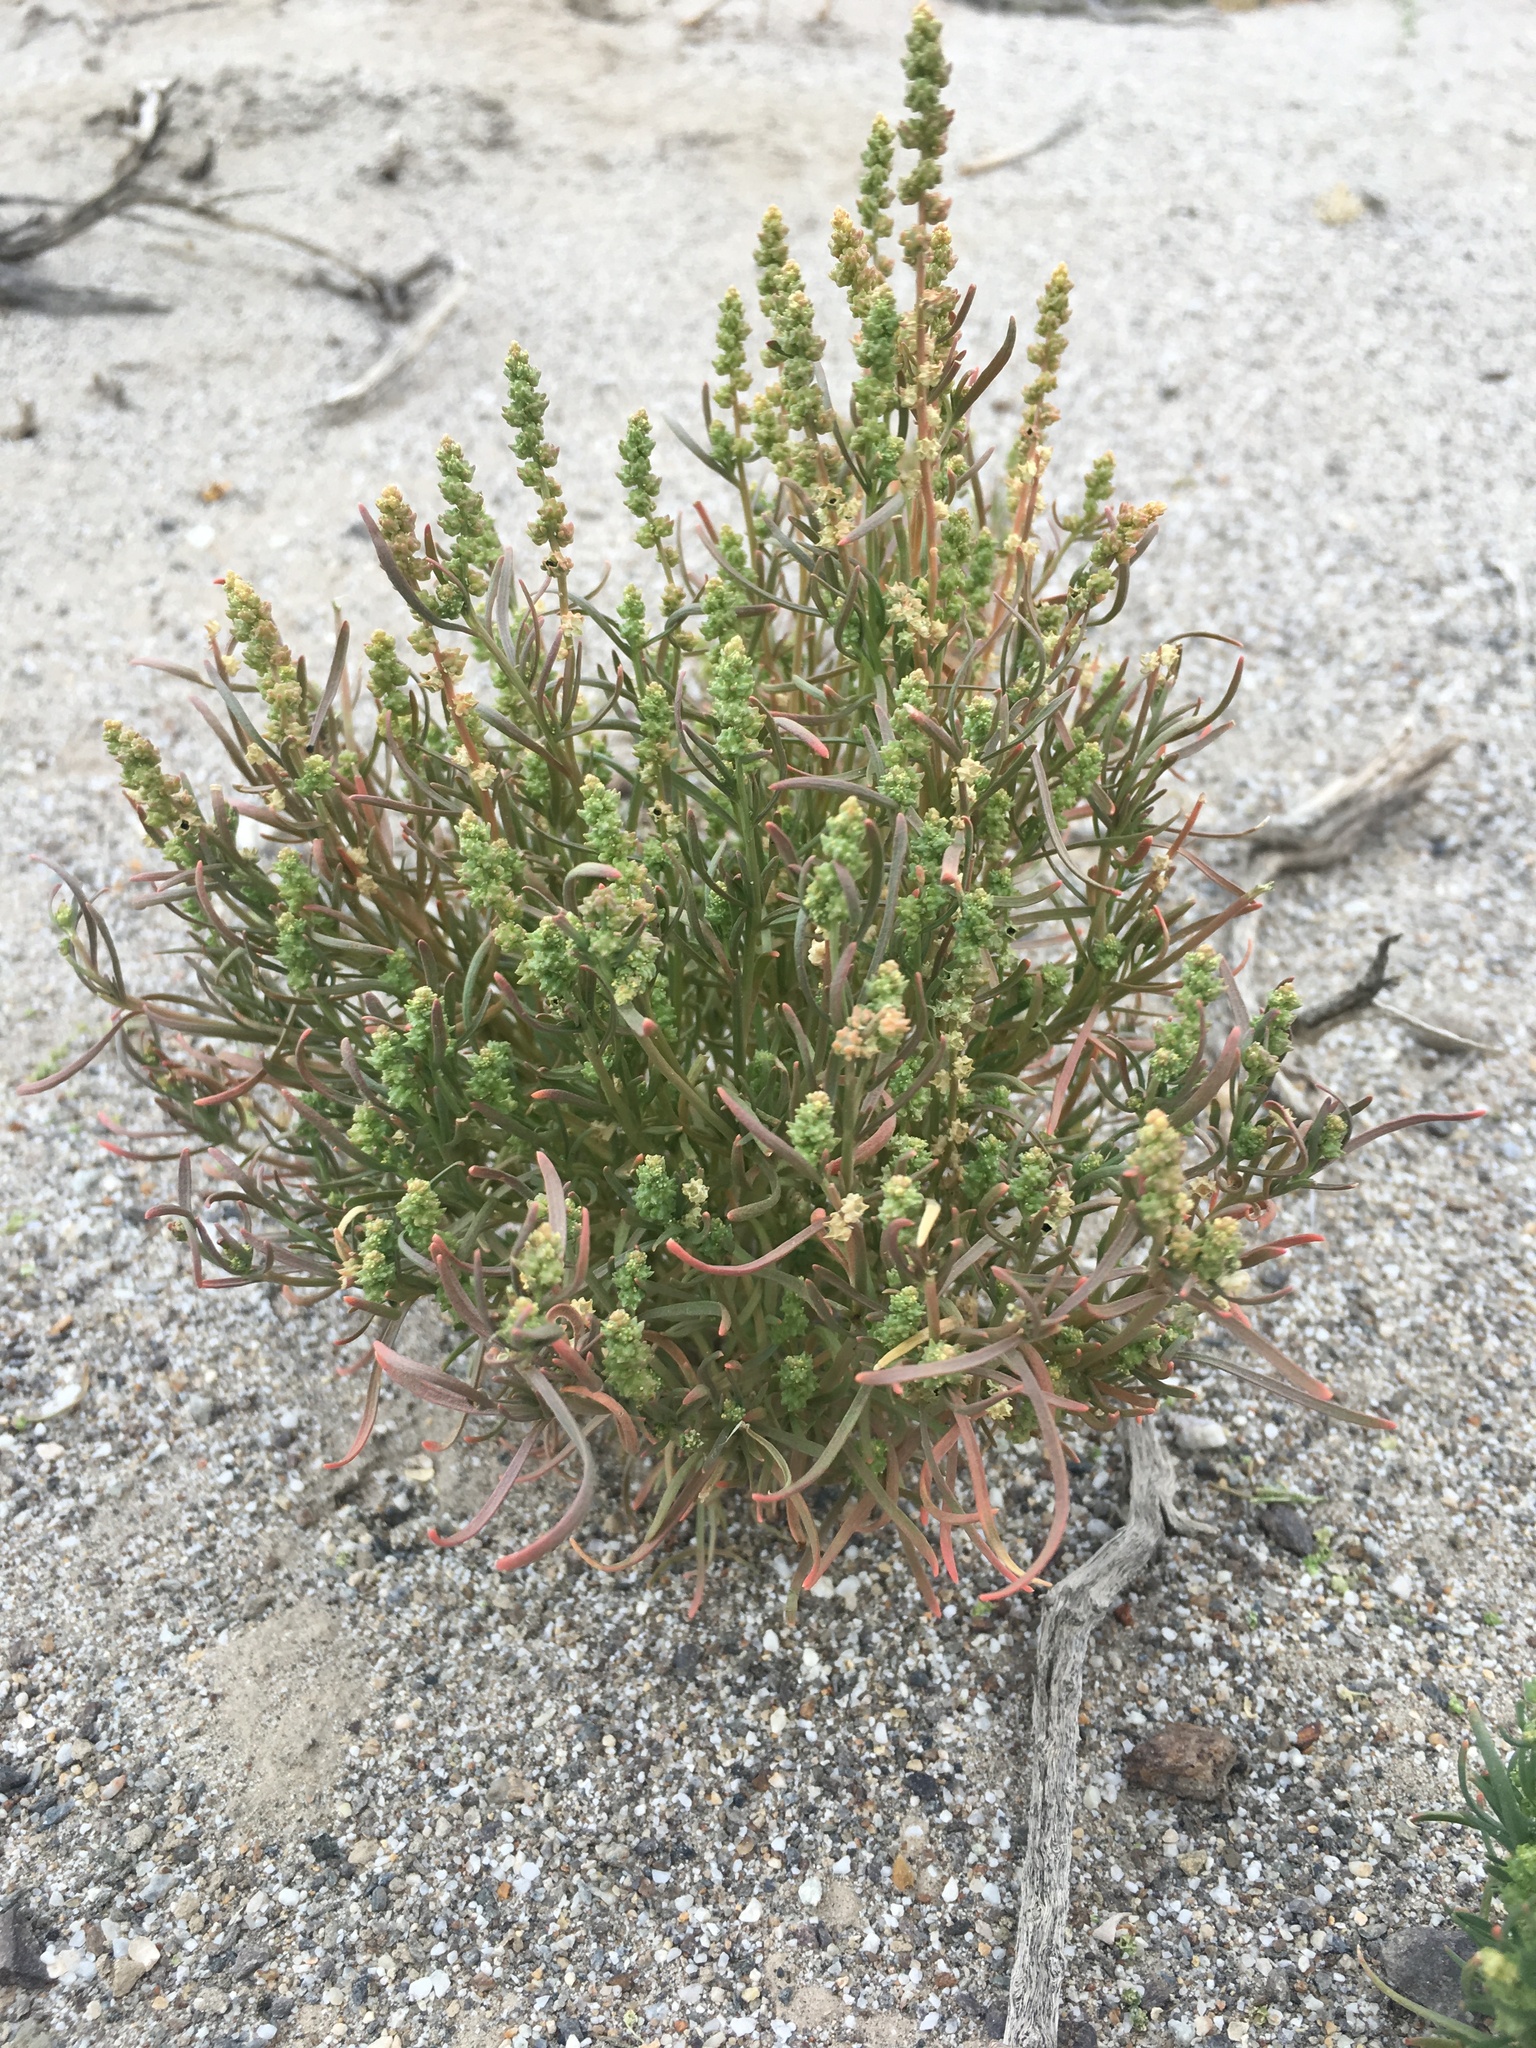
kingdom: Plantae
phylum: Tracheophyta
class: Magnoliopsida
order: Brassicales
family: Resedaceae
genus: Oligomeris
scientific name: Oligomeris linifolia
